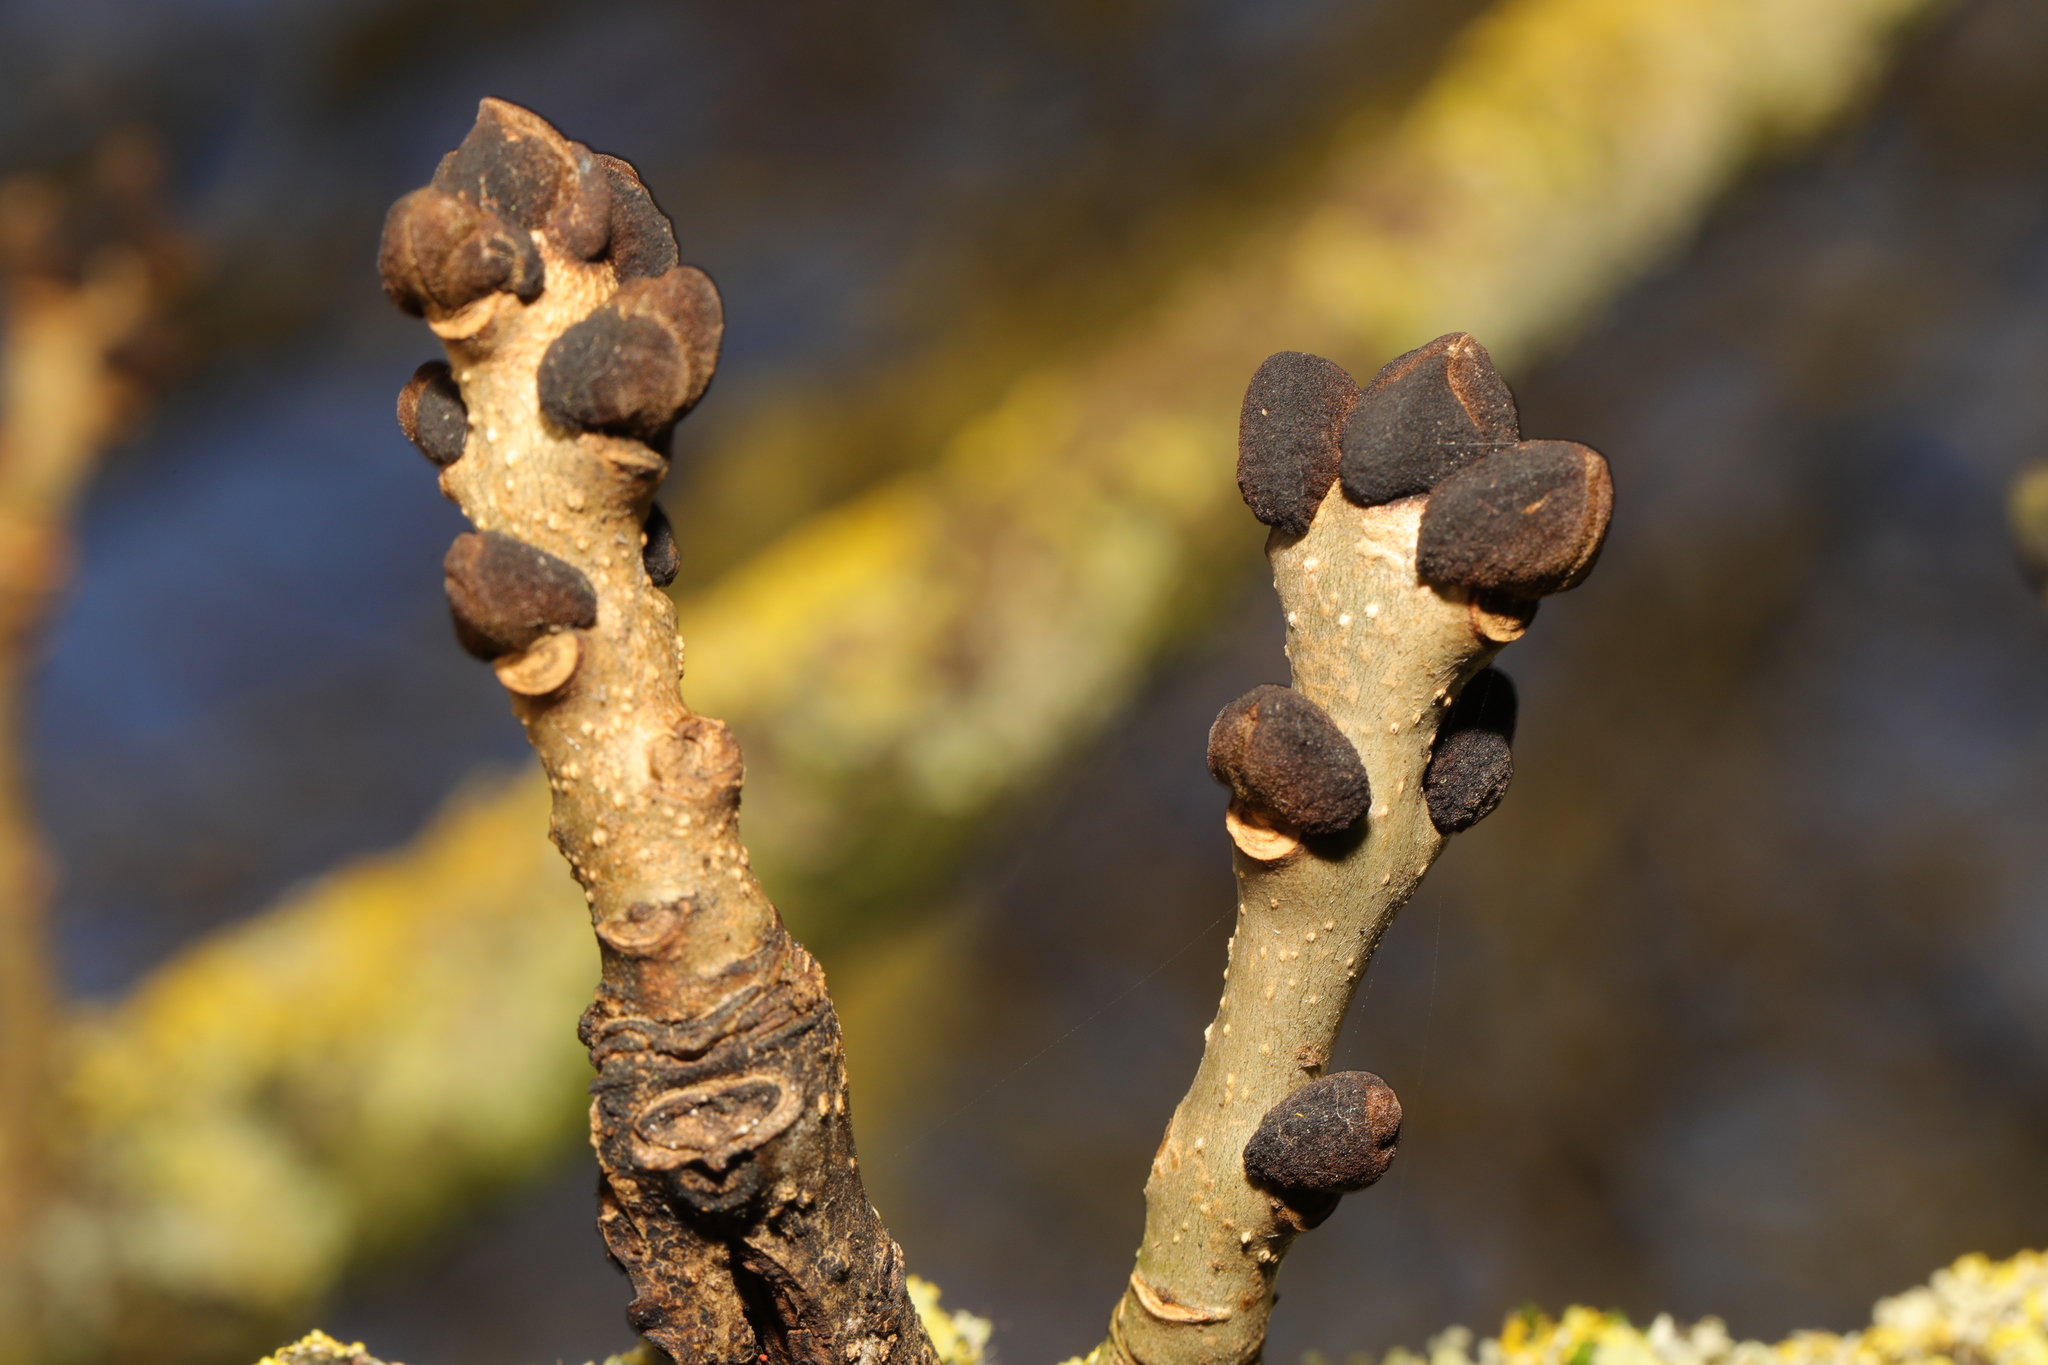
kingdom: Plantae
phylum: Tracheophyta
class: Magnoliopsida
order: Lamiales
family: Oleaceae
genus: Fraxinus
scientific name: Fraxinus excelsior
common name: European ash
